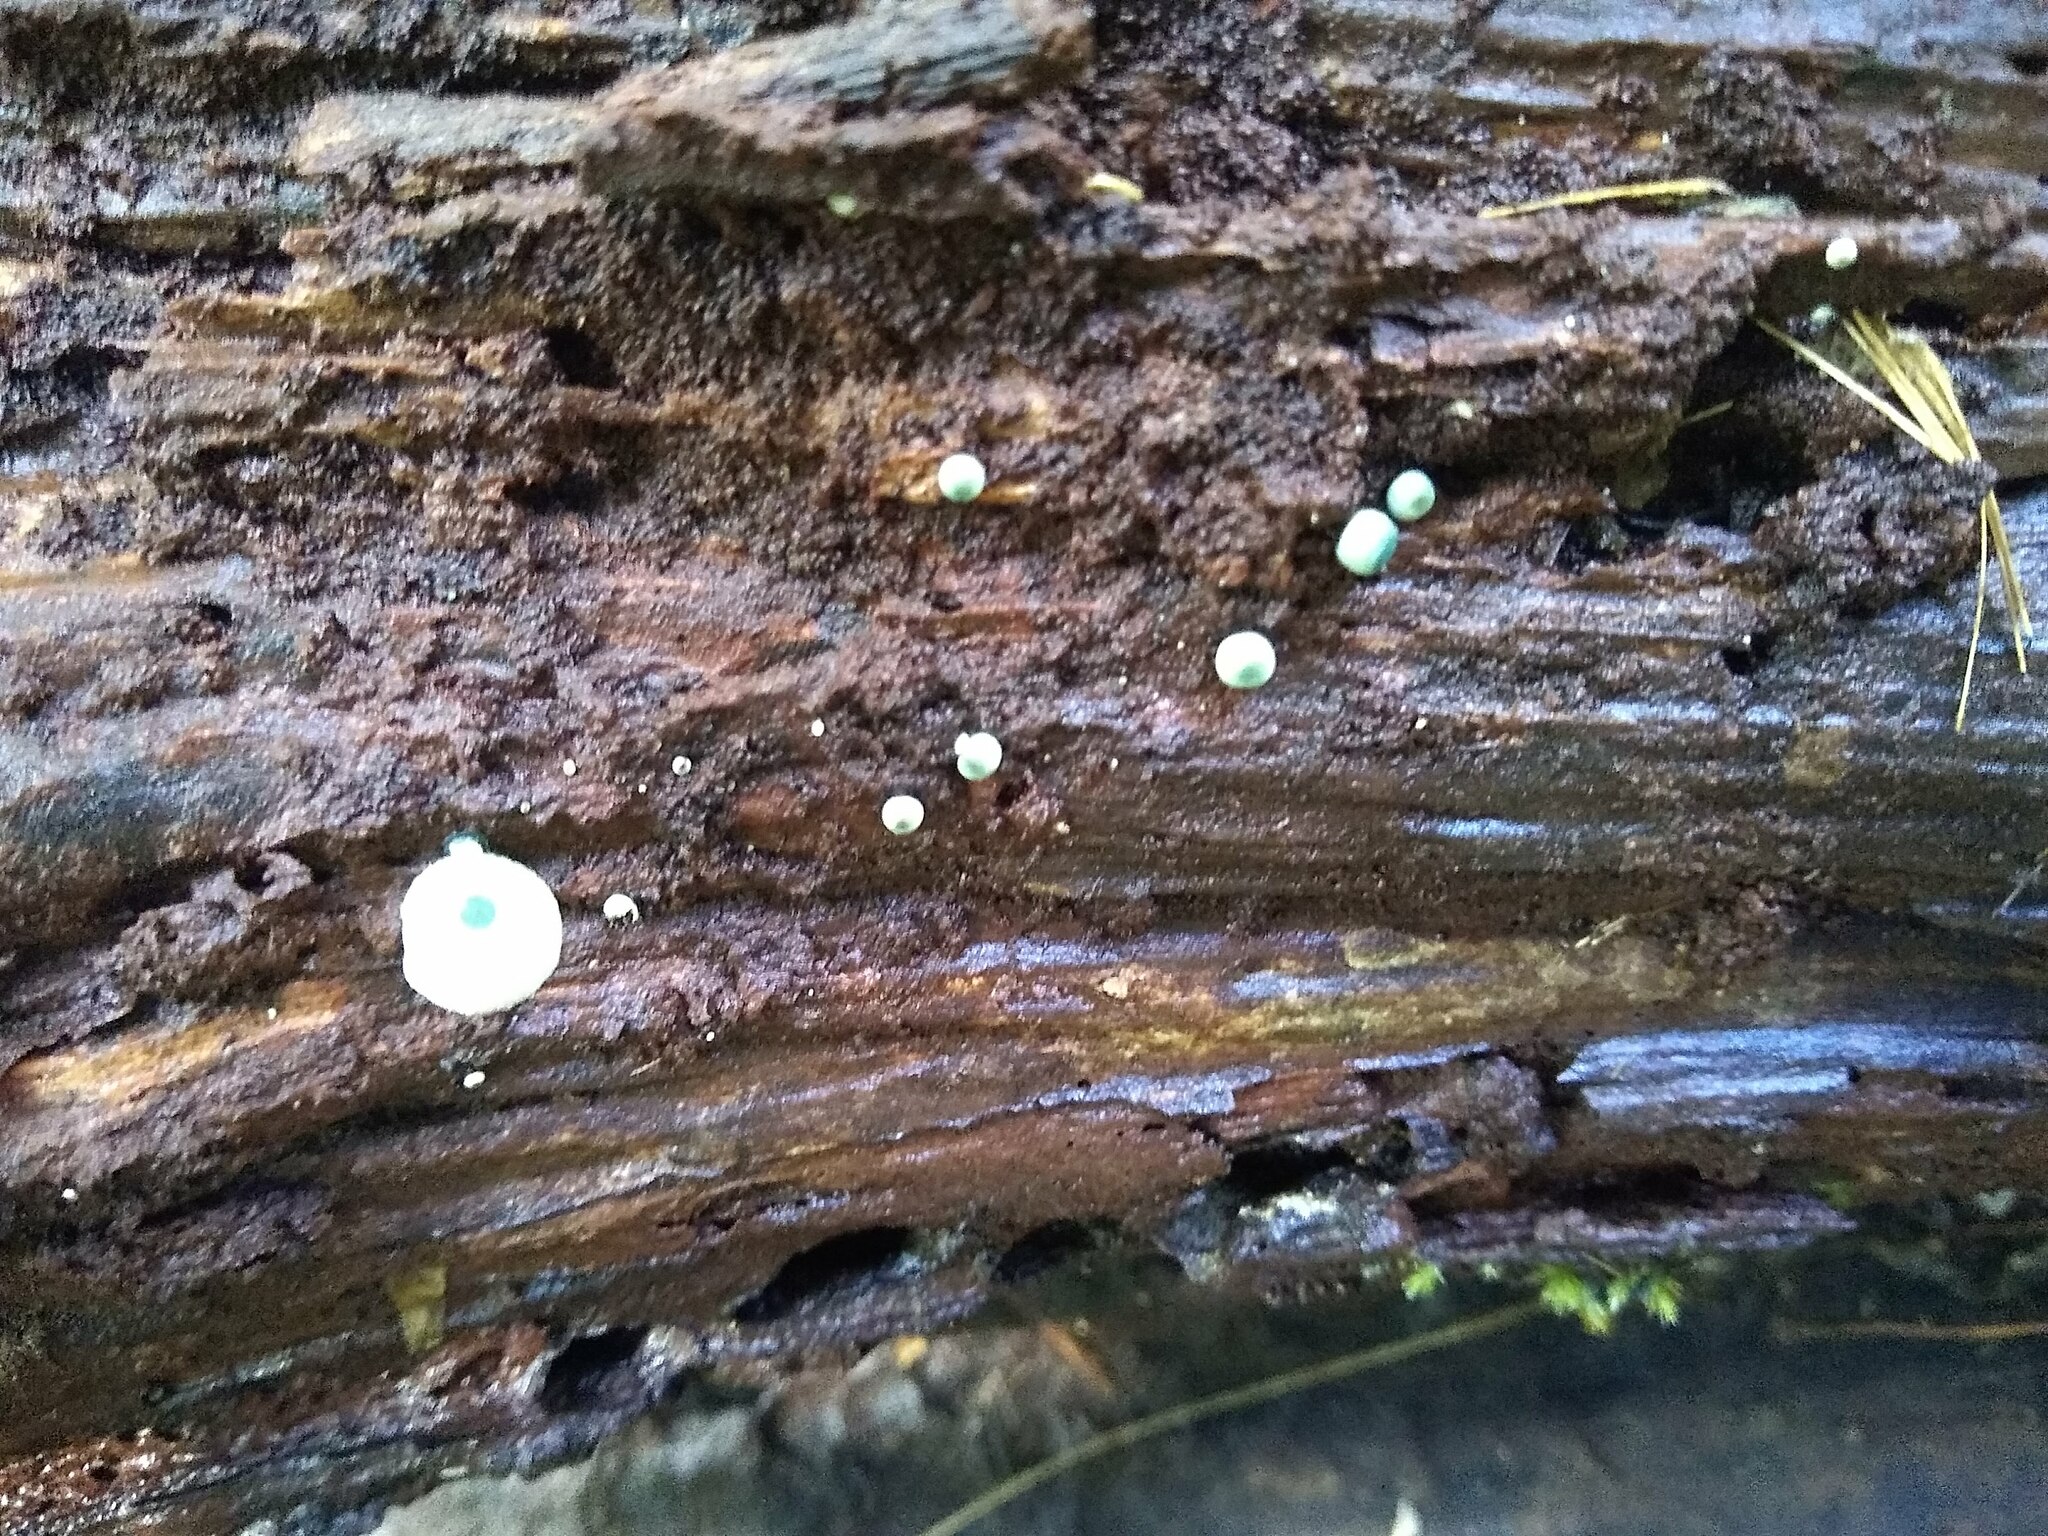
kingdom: Fungi
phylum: Basidiomycota
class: Agaricomycetes
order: Agaricales
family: Mycenaceae
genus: Mycena
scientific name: Mycena interrupta
